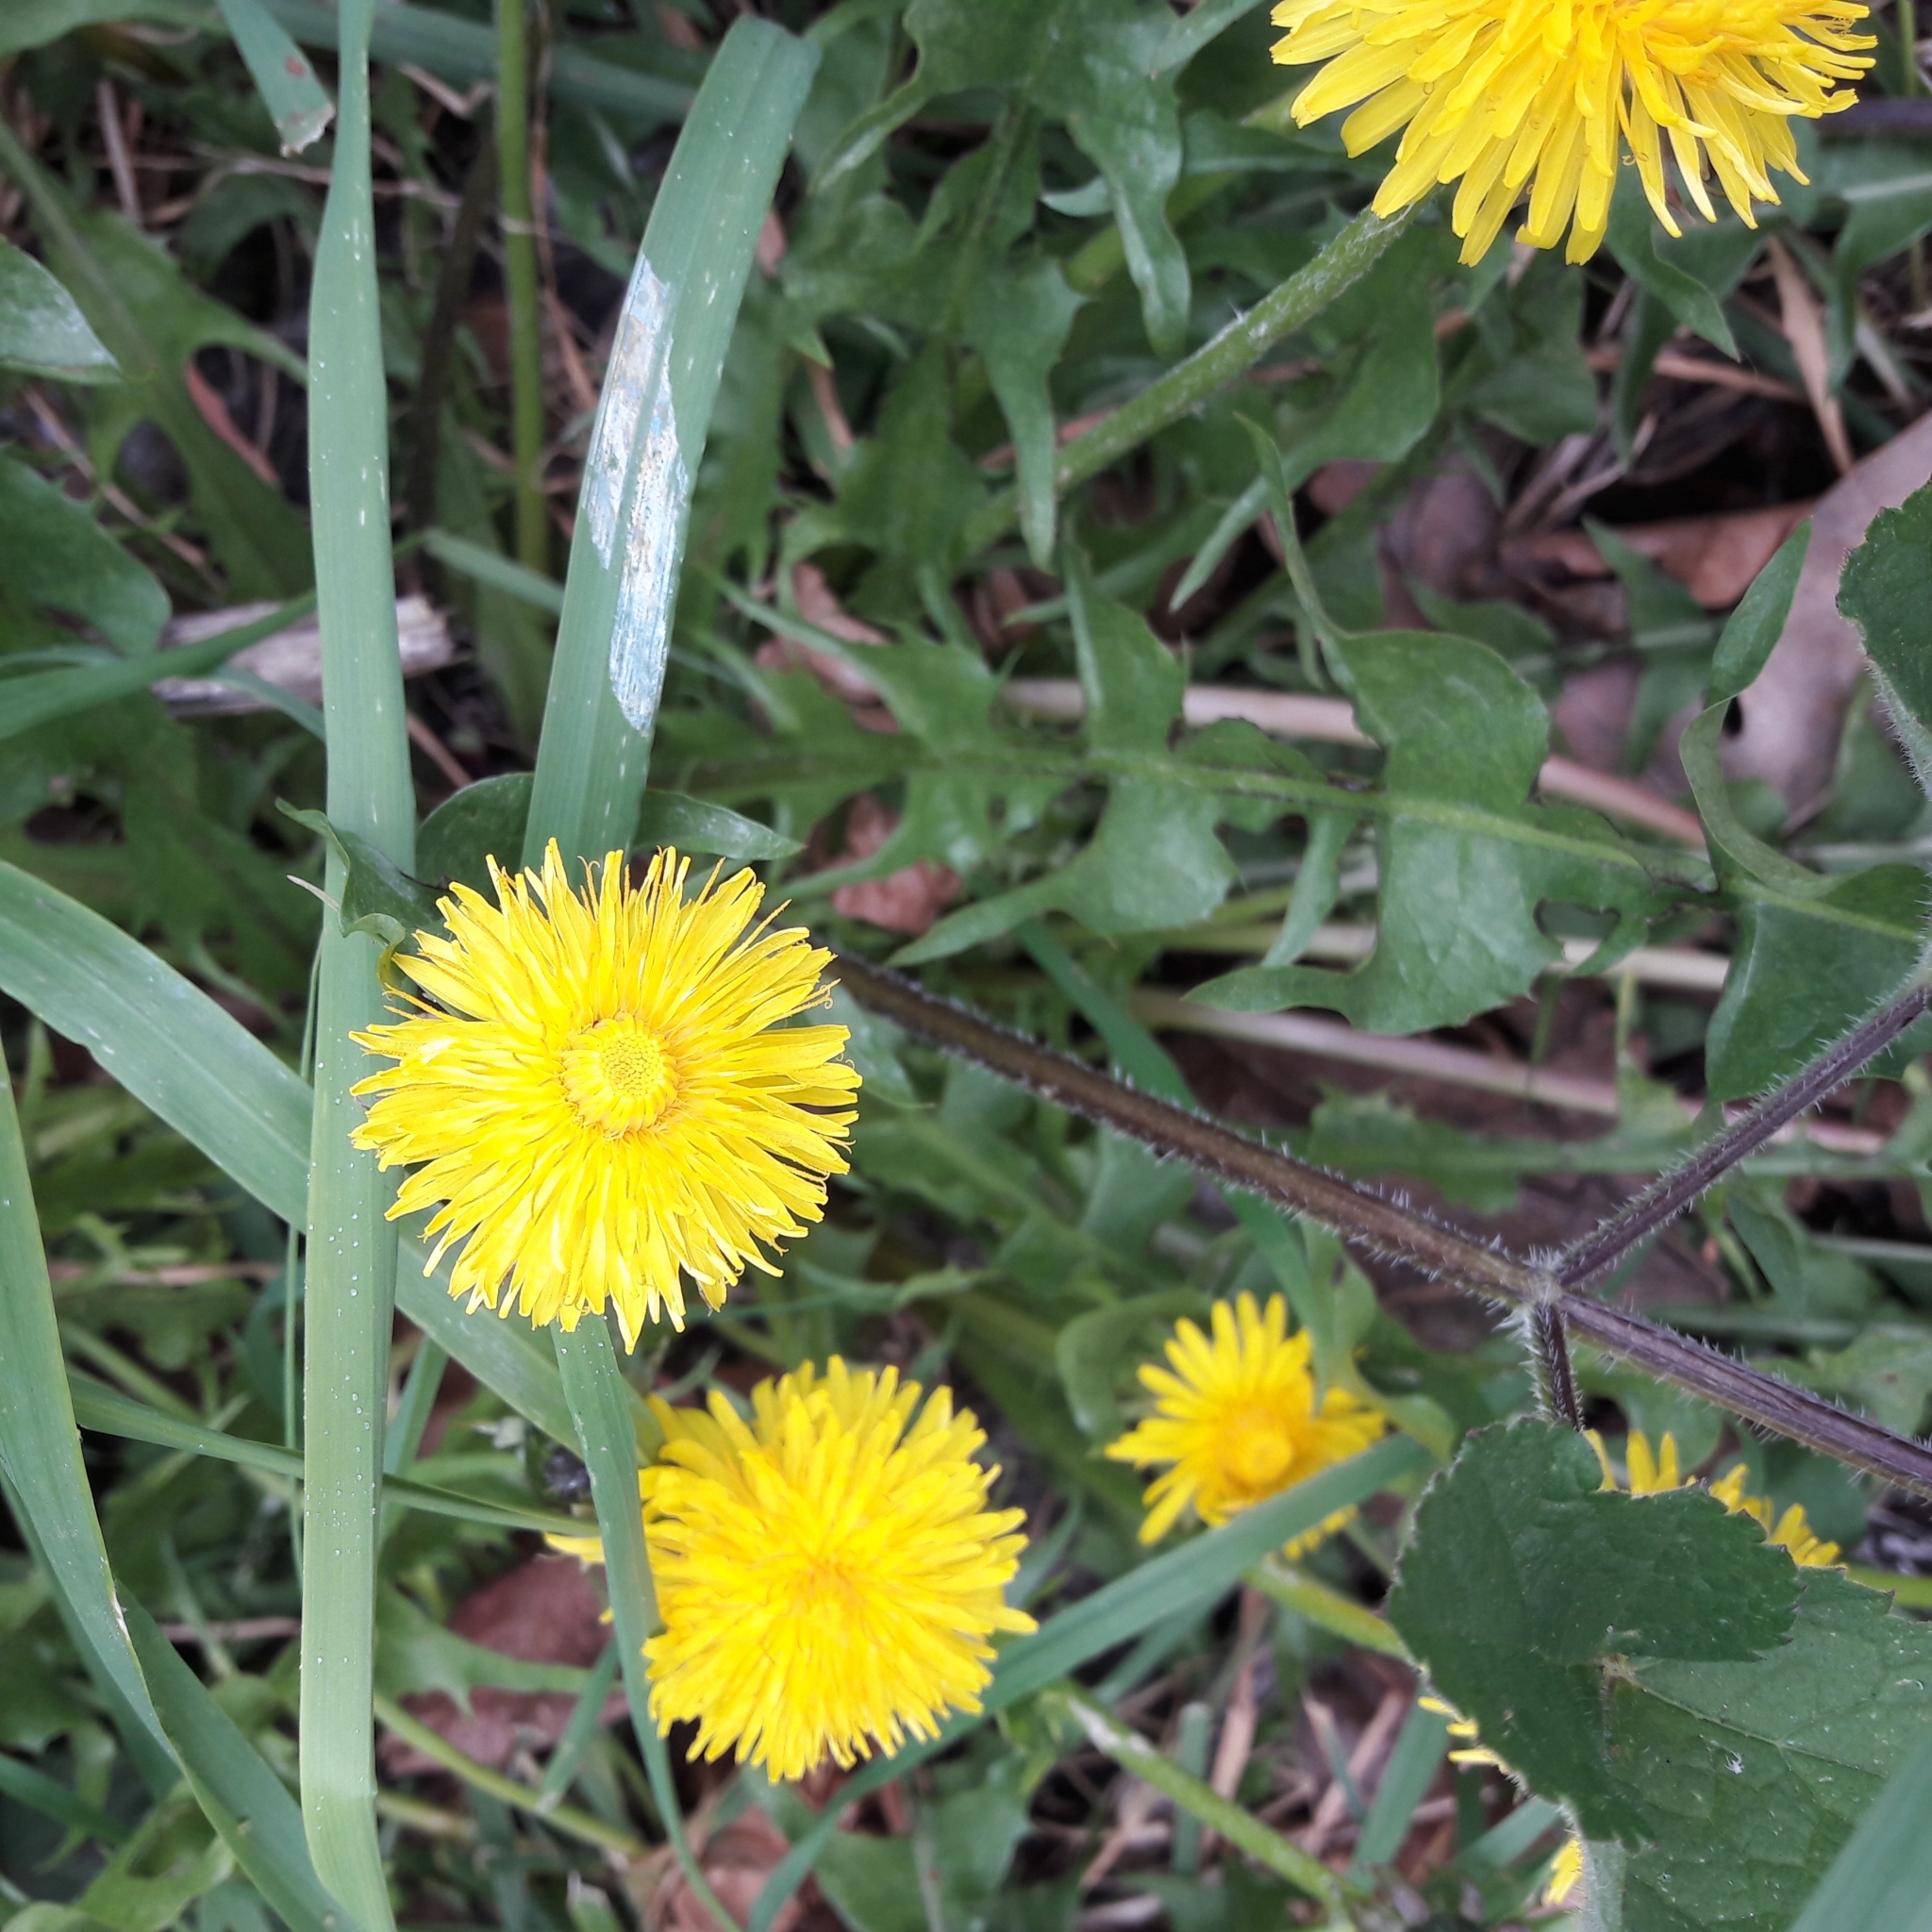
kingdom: Plantae
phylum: Tracheophyta
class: Magnoliopsida
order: Asterales
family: Asteraceae
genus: Taraxacum
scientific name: Taraxacum officinale
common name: Common dandelion
